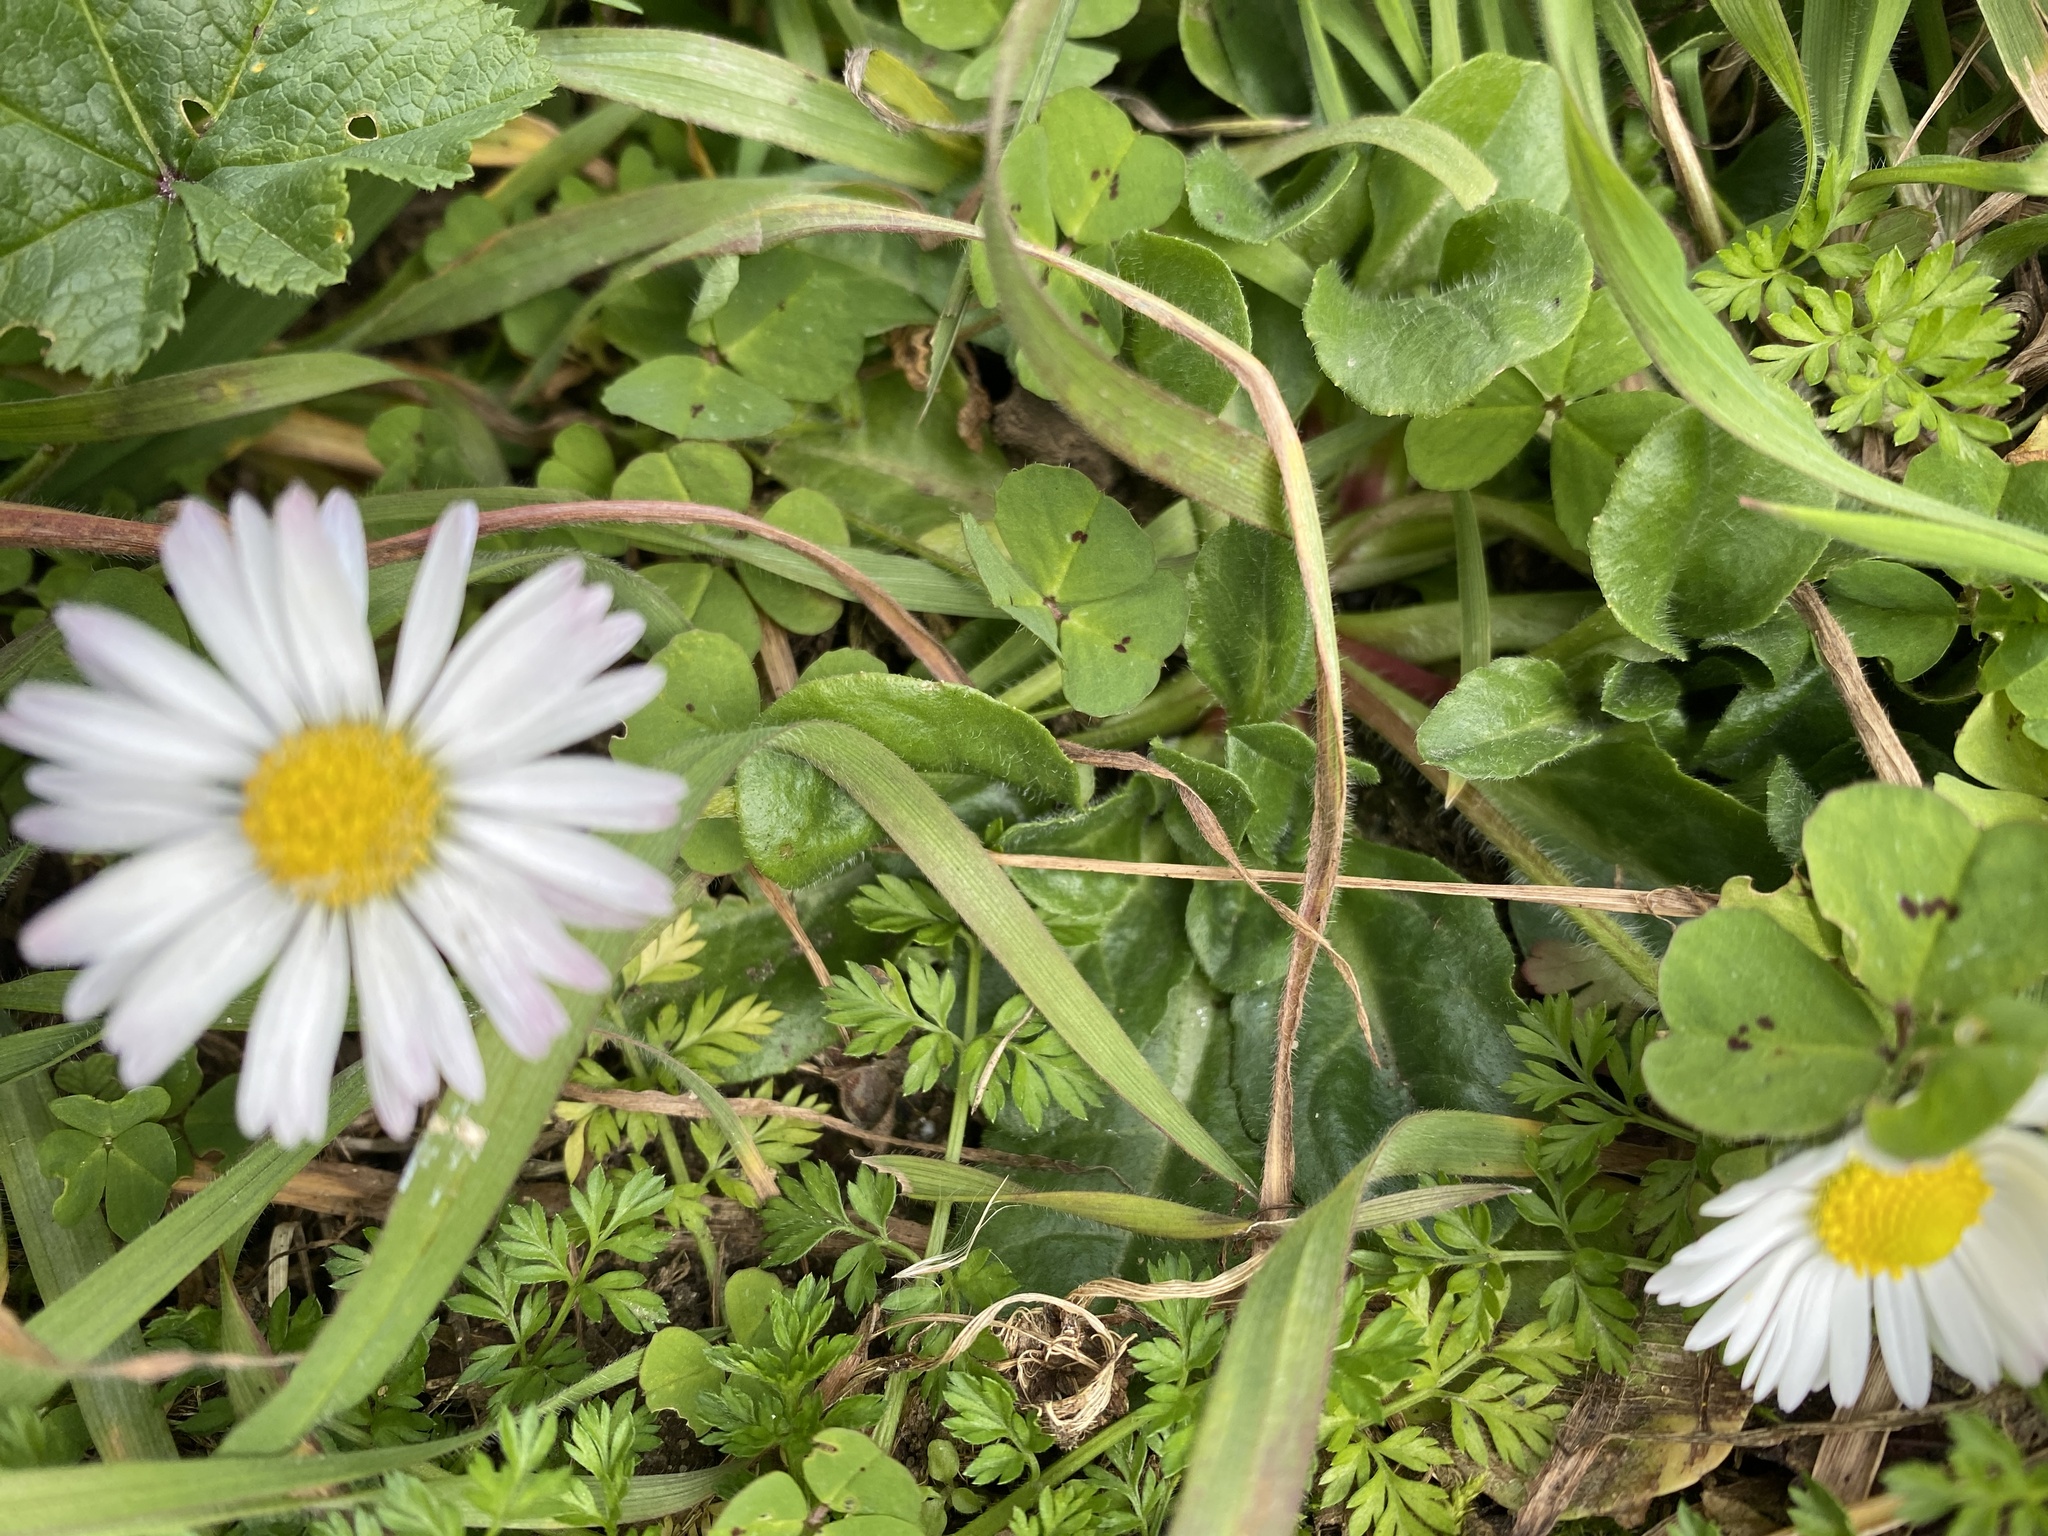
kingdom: Plantae
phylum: Tracheophyta
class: Magnoliopsida
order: Asterales
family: Asteraceae
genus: Bellis
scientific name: Bellis perennis
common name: Lawndaisy
